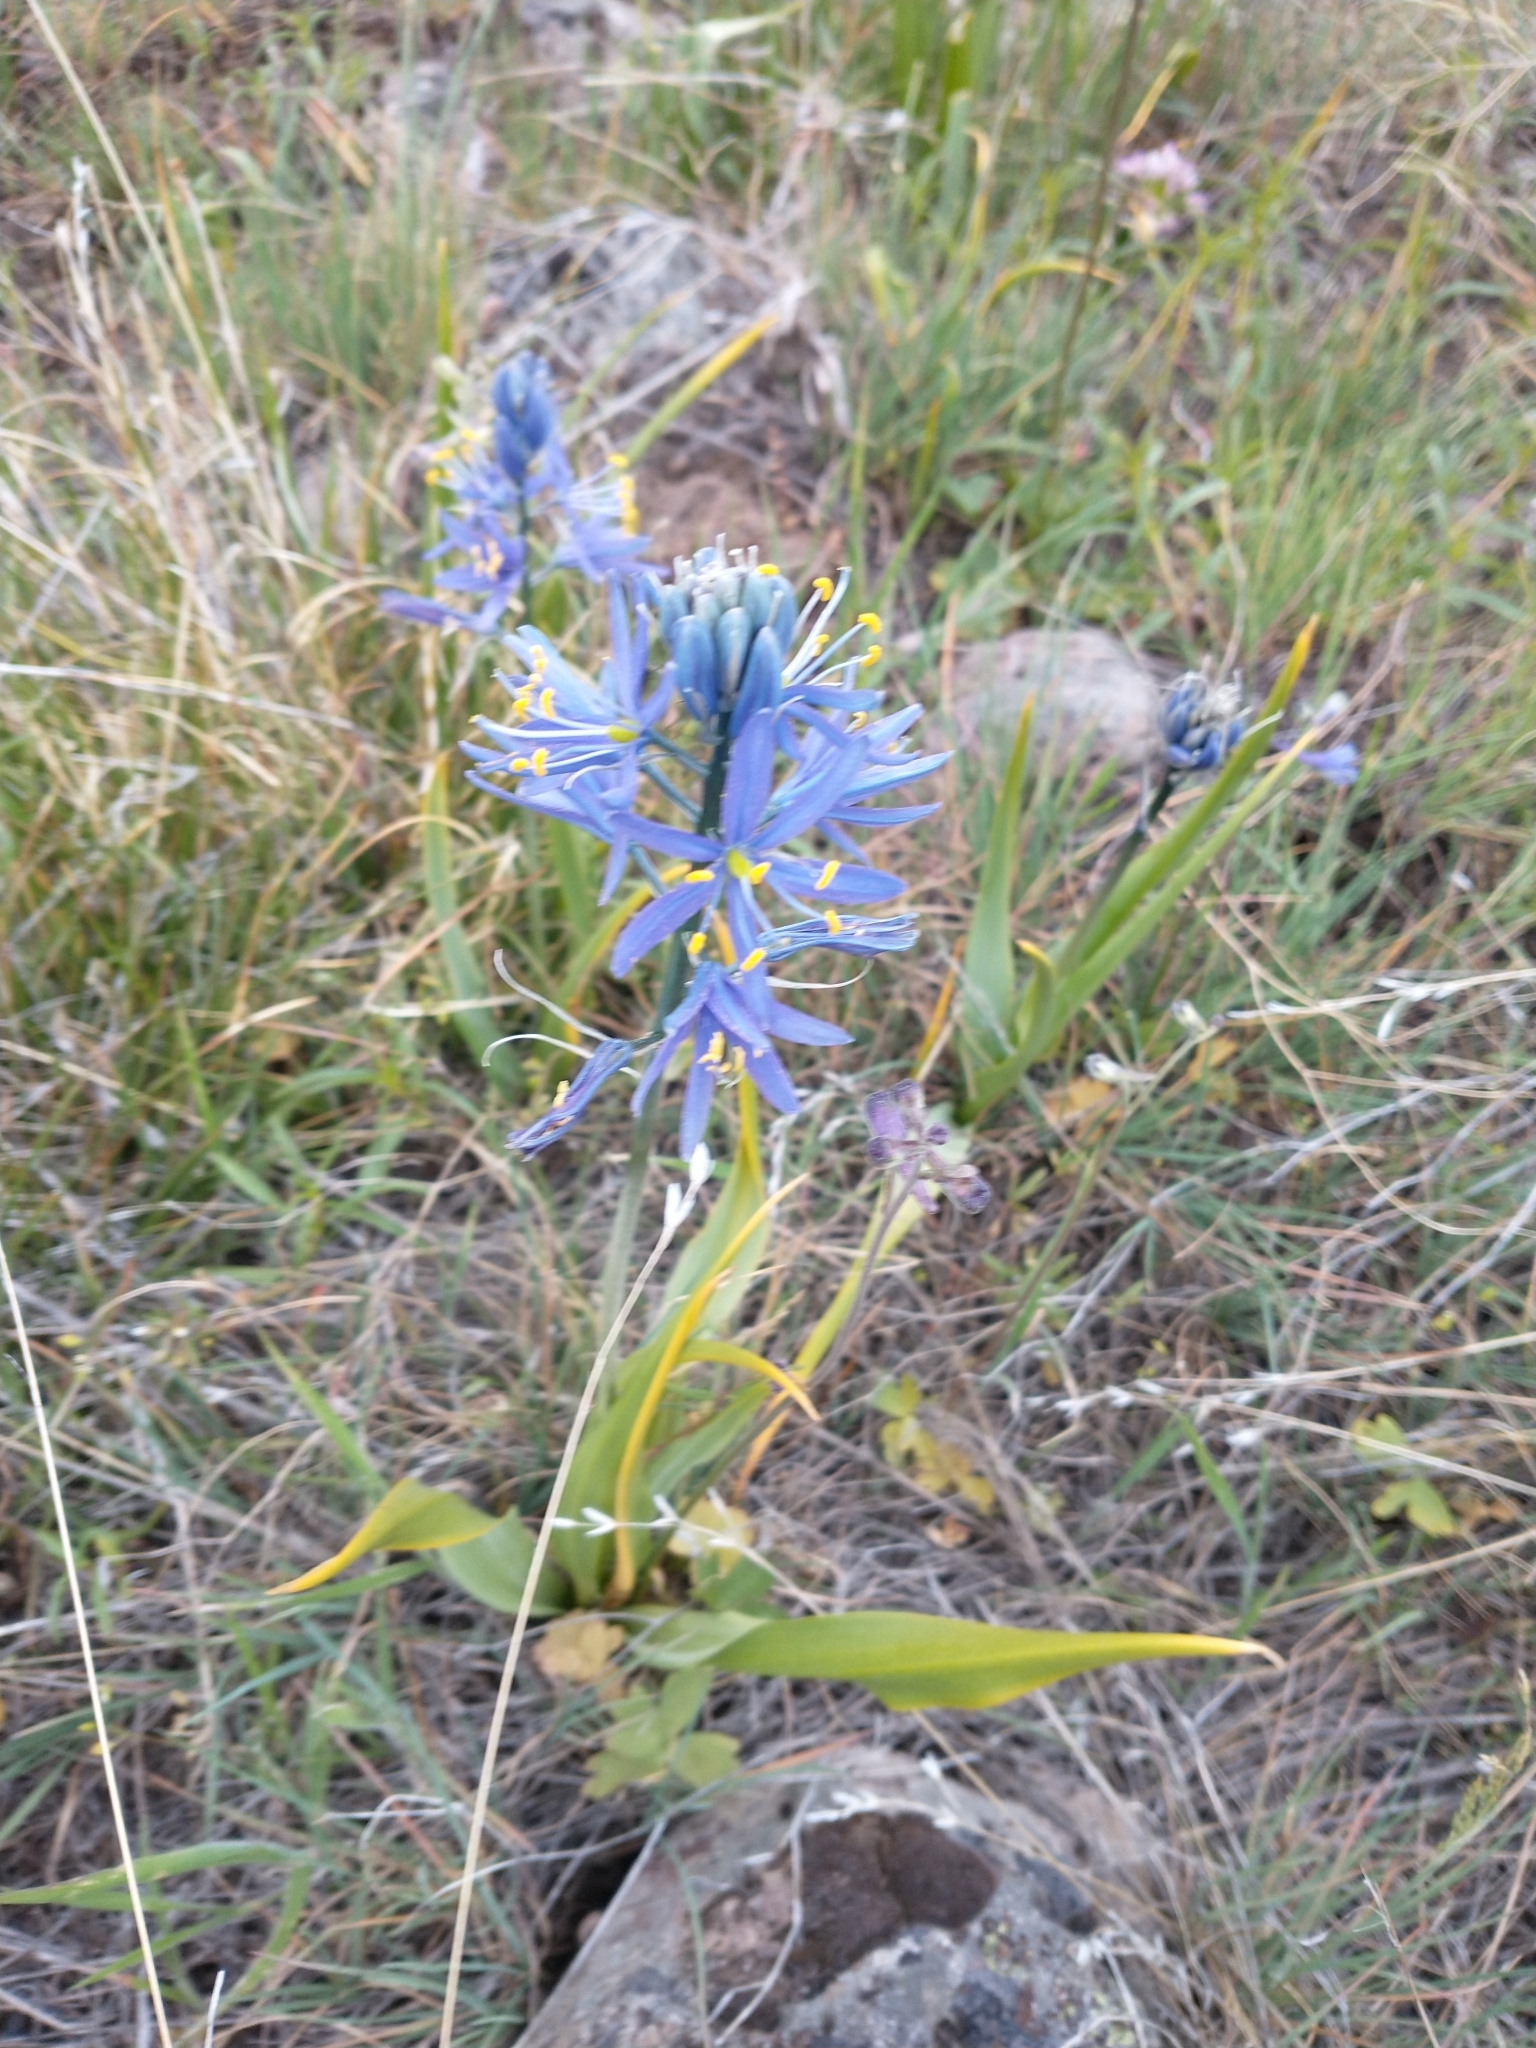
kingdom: Plantae
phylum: Tracheophyta
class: Liliopsida
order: Asparagales
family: Asparagaceae
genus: Camassia
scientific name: Camassia quamash
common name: Common camas
